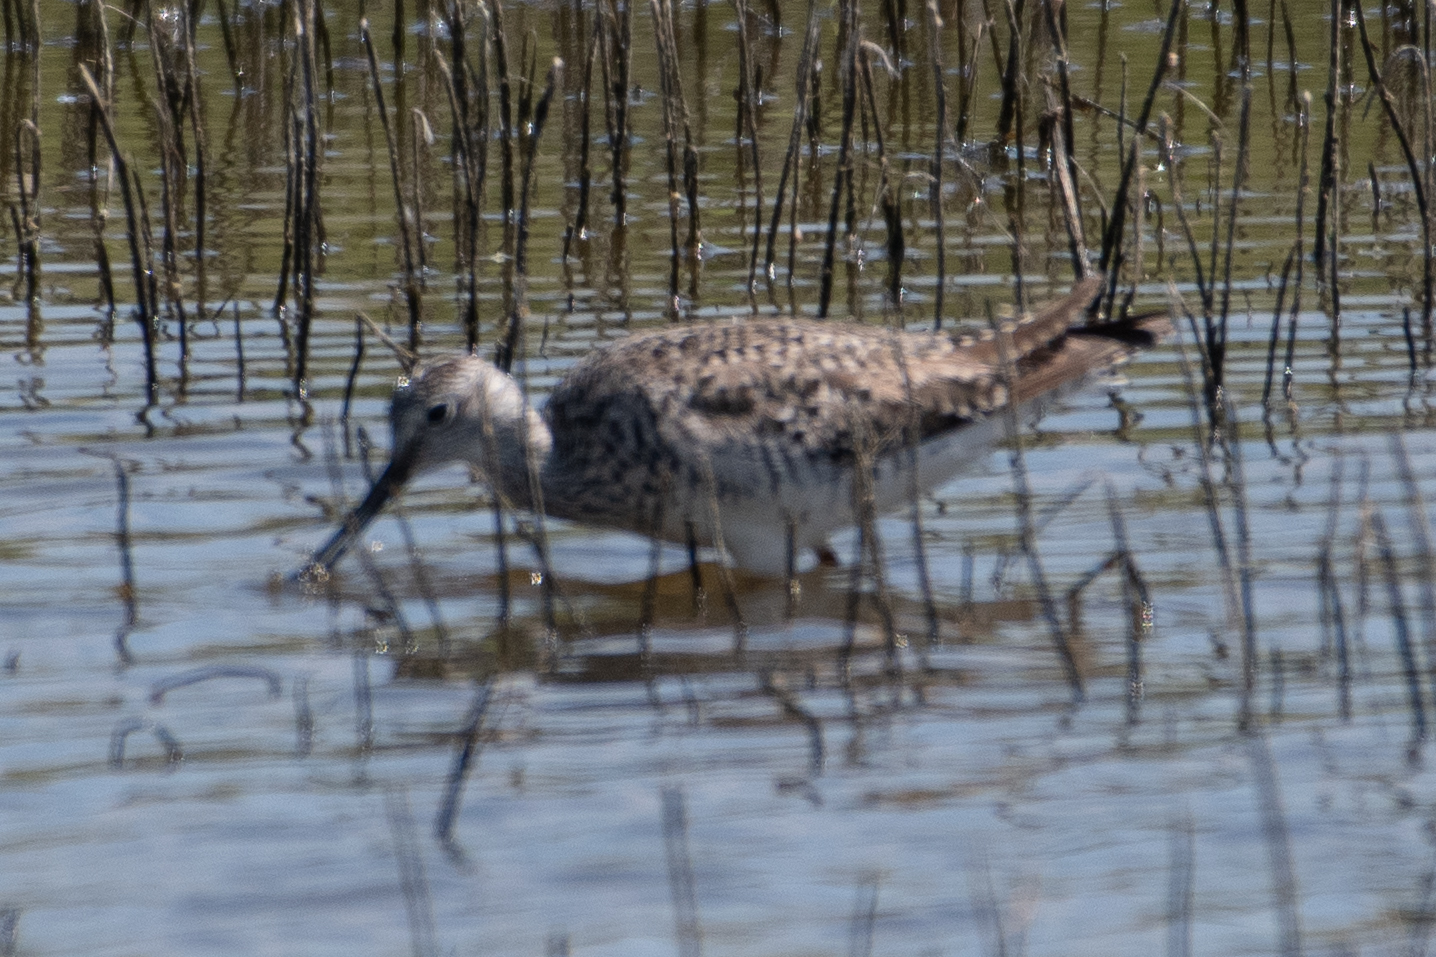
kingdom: Animalia
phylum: Chordata
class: Aves
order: Charadriiformes
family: Scolopacidae
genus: Tringa
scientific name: Tringa melanoleuca
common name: Greater yellowlegs
